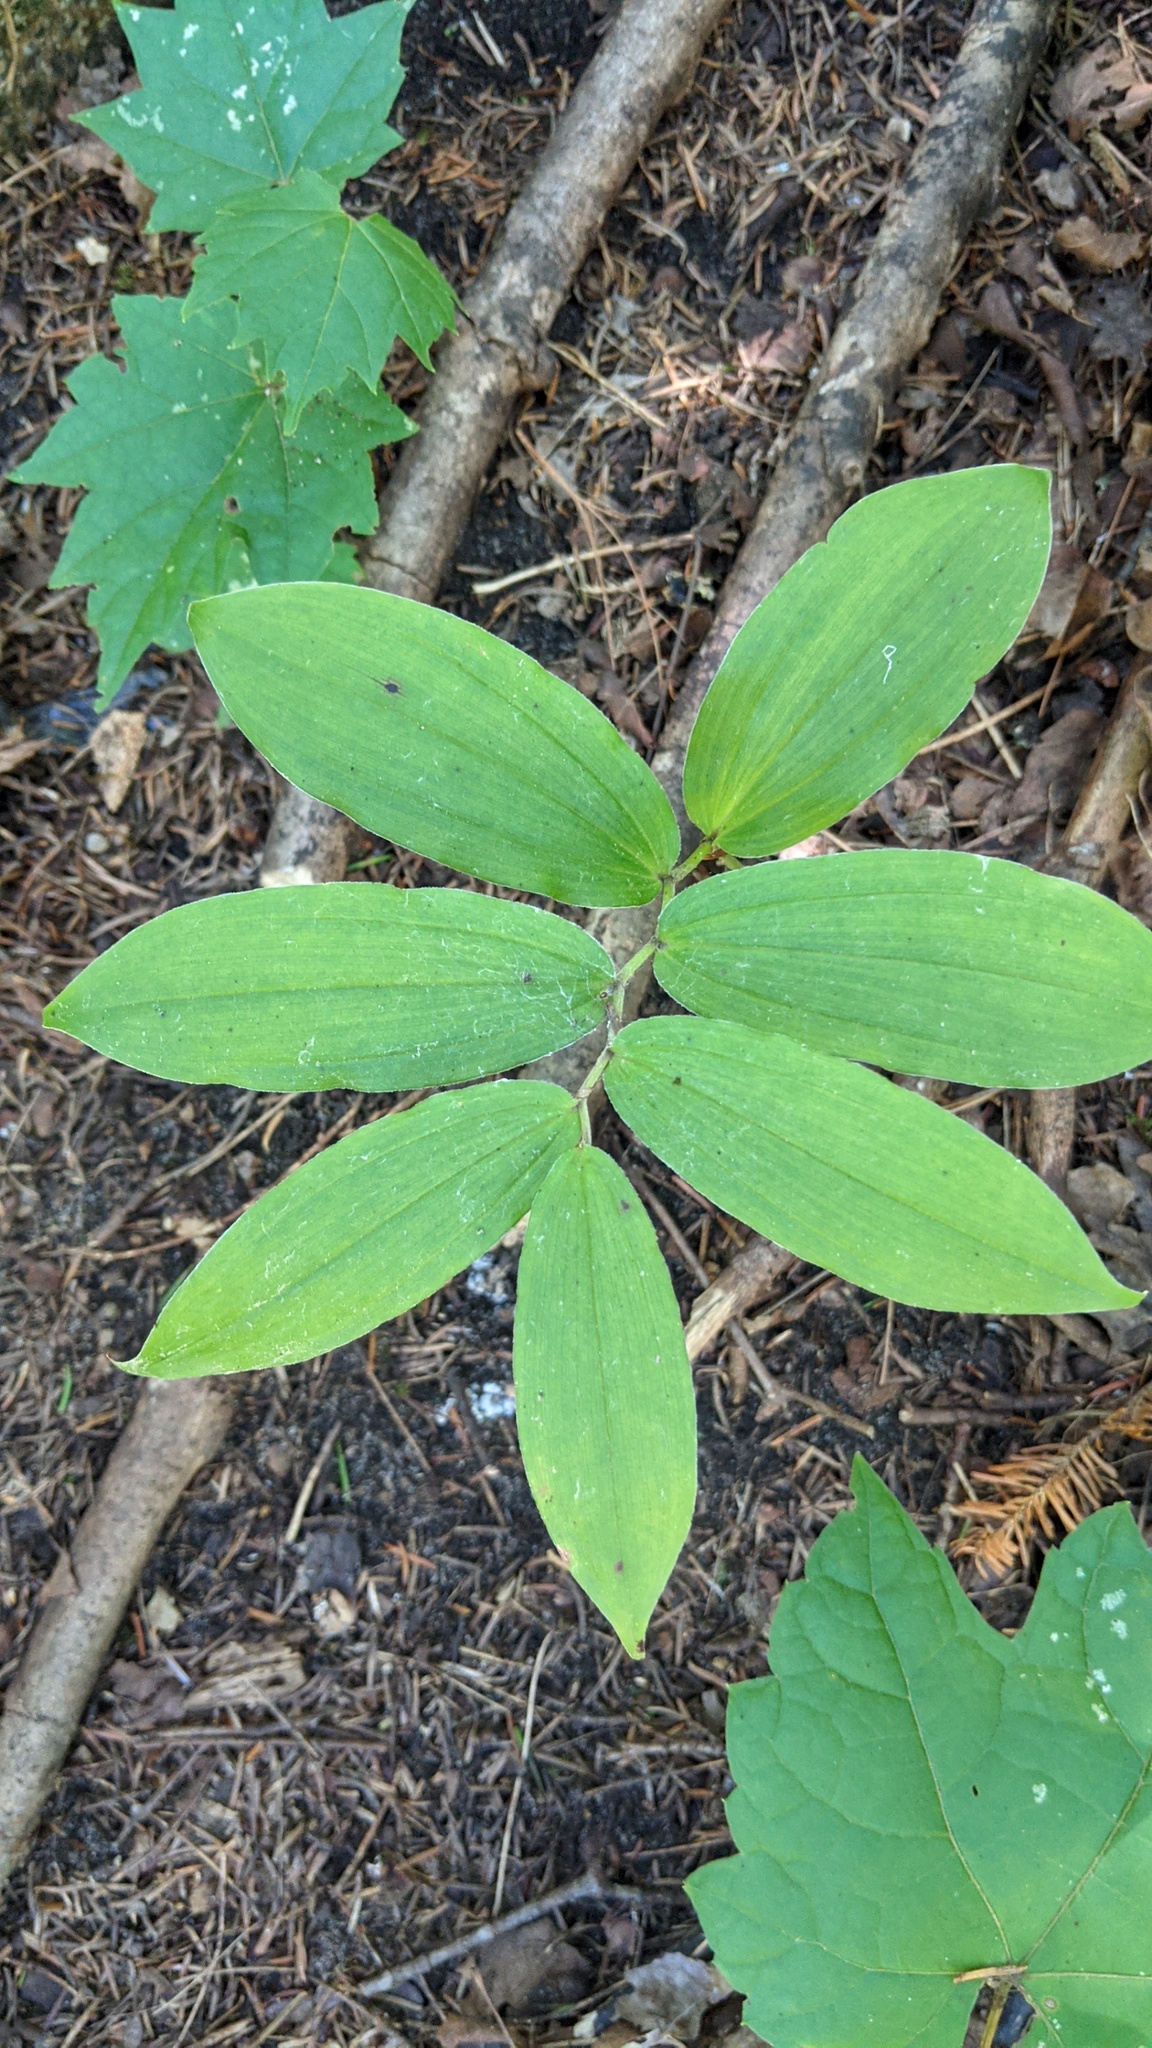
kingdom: Plantae
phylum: Tracheophyta
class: Liliopsida
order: Asparagales
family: Asparagaceae
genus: Maianthemum
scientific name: Maianthemum racemosum
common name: False spikenard
